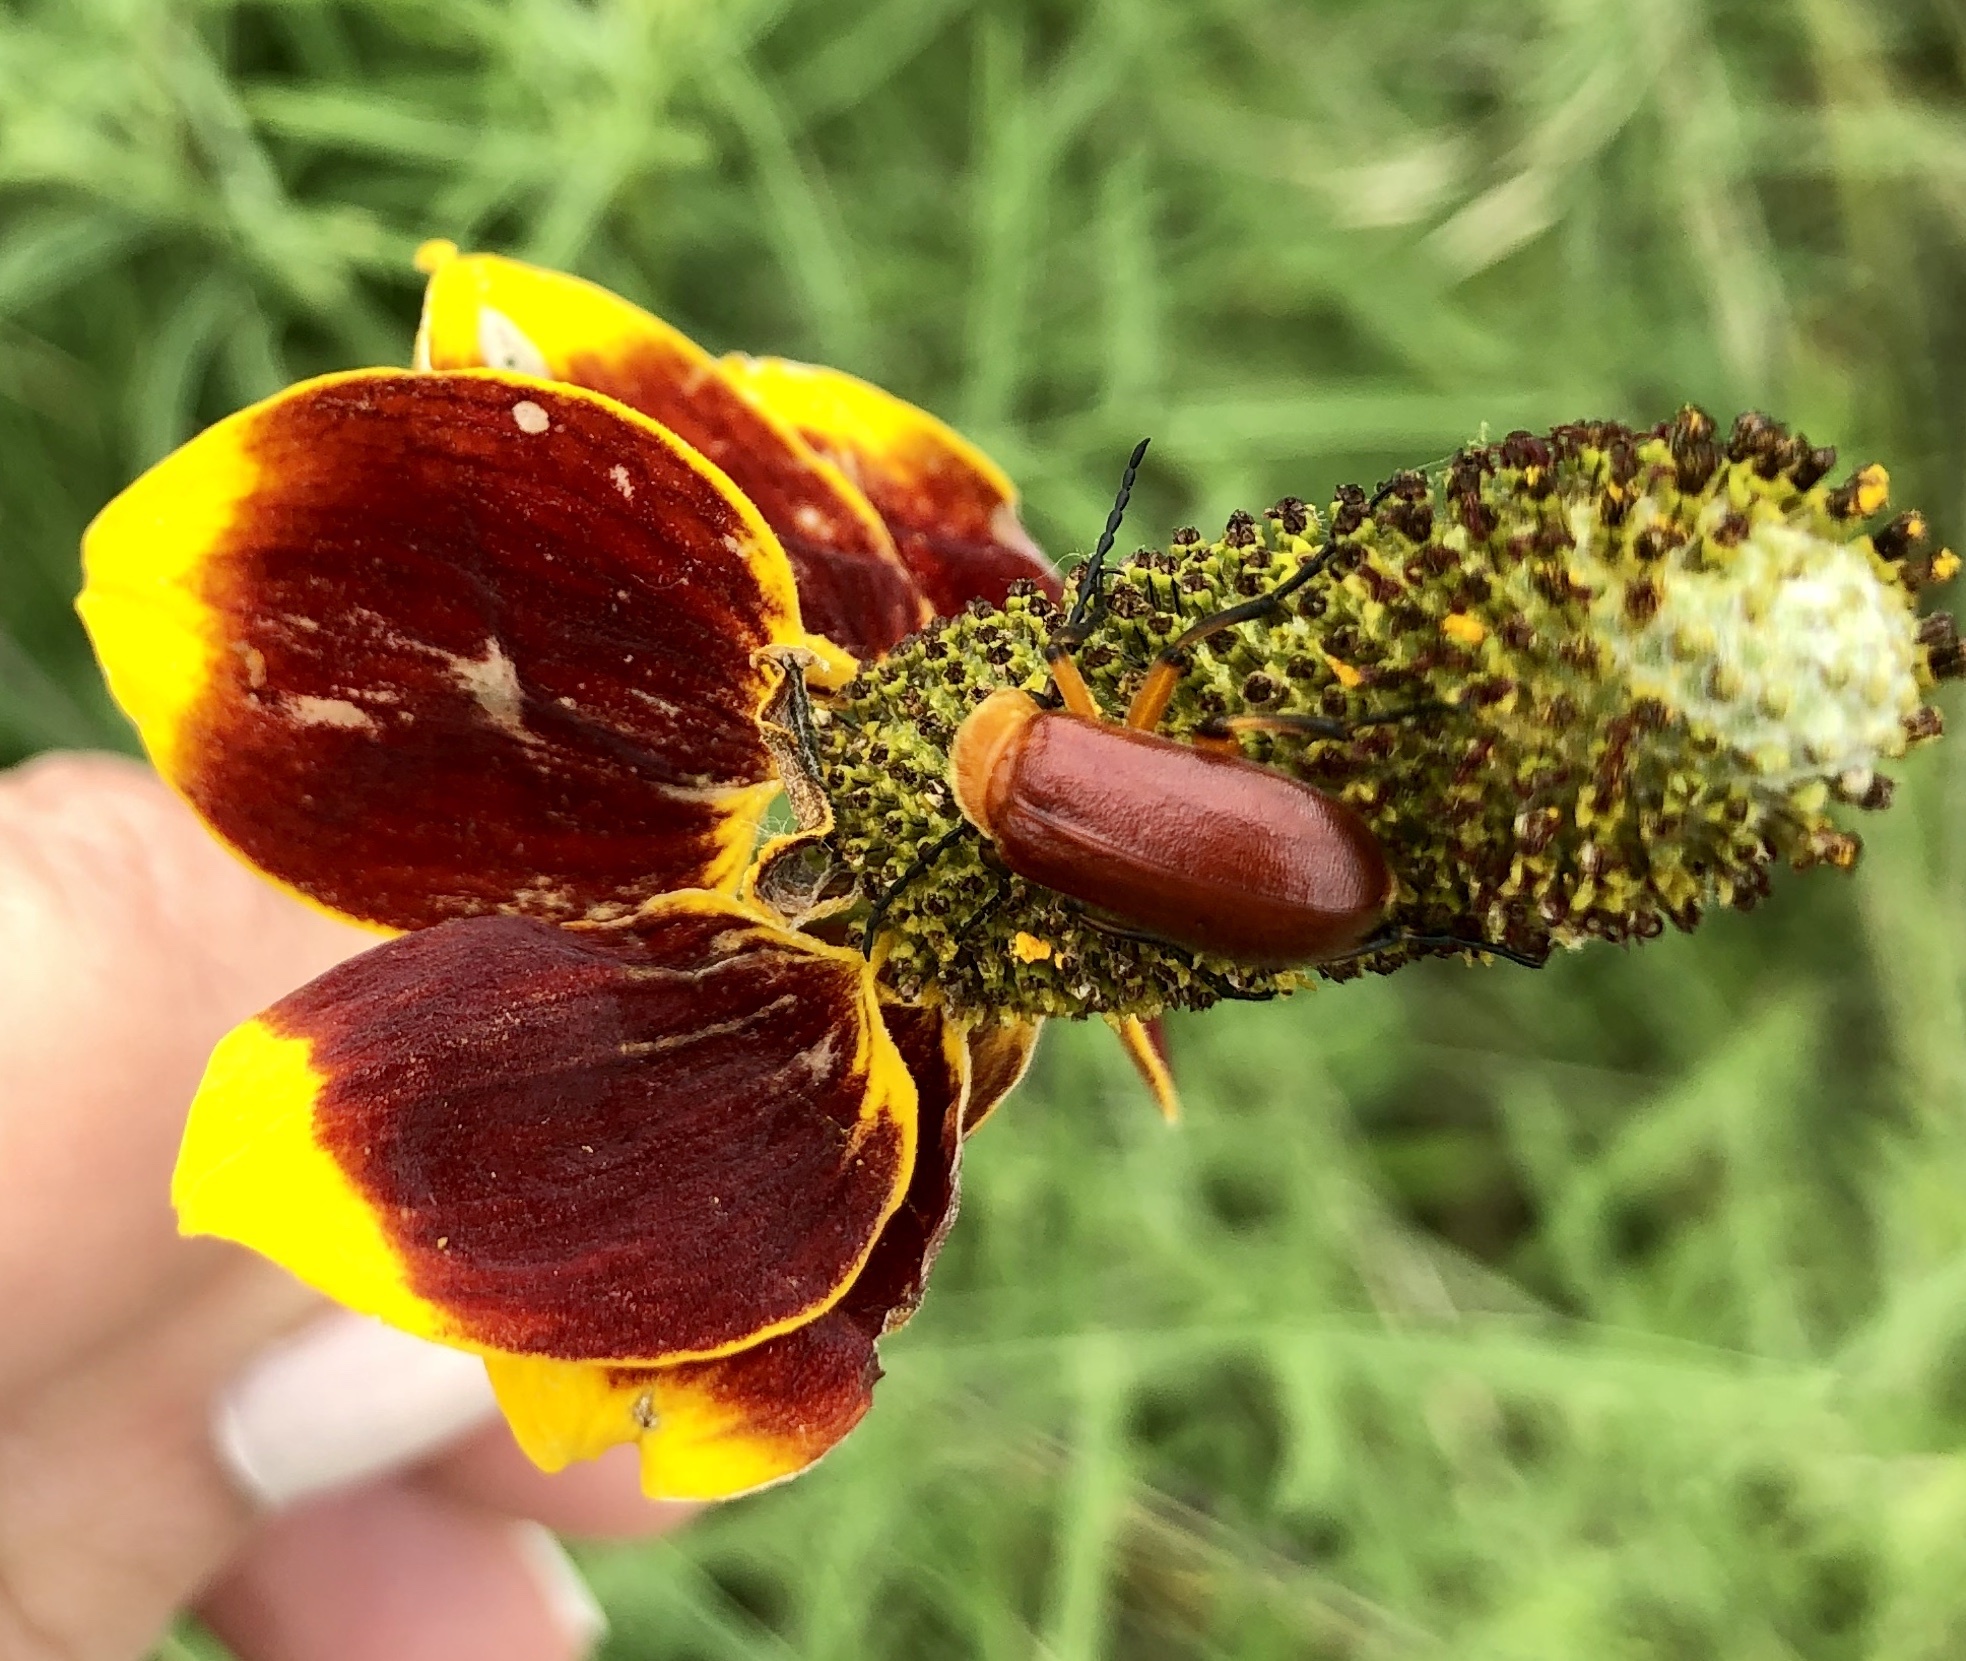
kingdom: Plantae
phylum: Tracheophyta
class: Magnoliopsida
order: Asterales
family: Asteraceae
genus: Ratibida
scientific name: Ratibida columnifera
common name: Prairie coneflower
